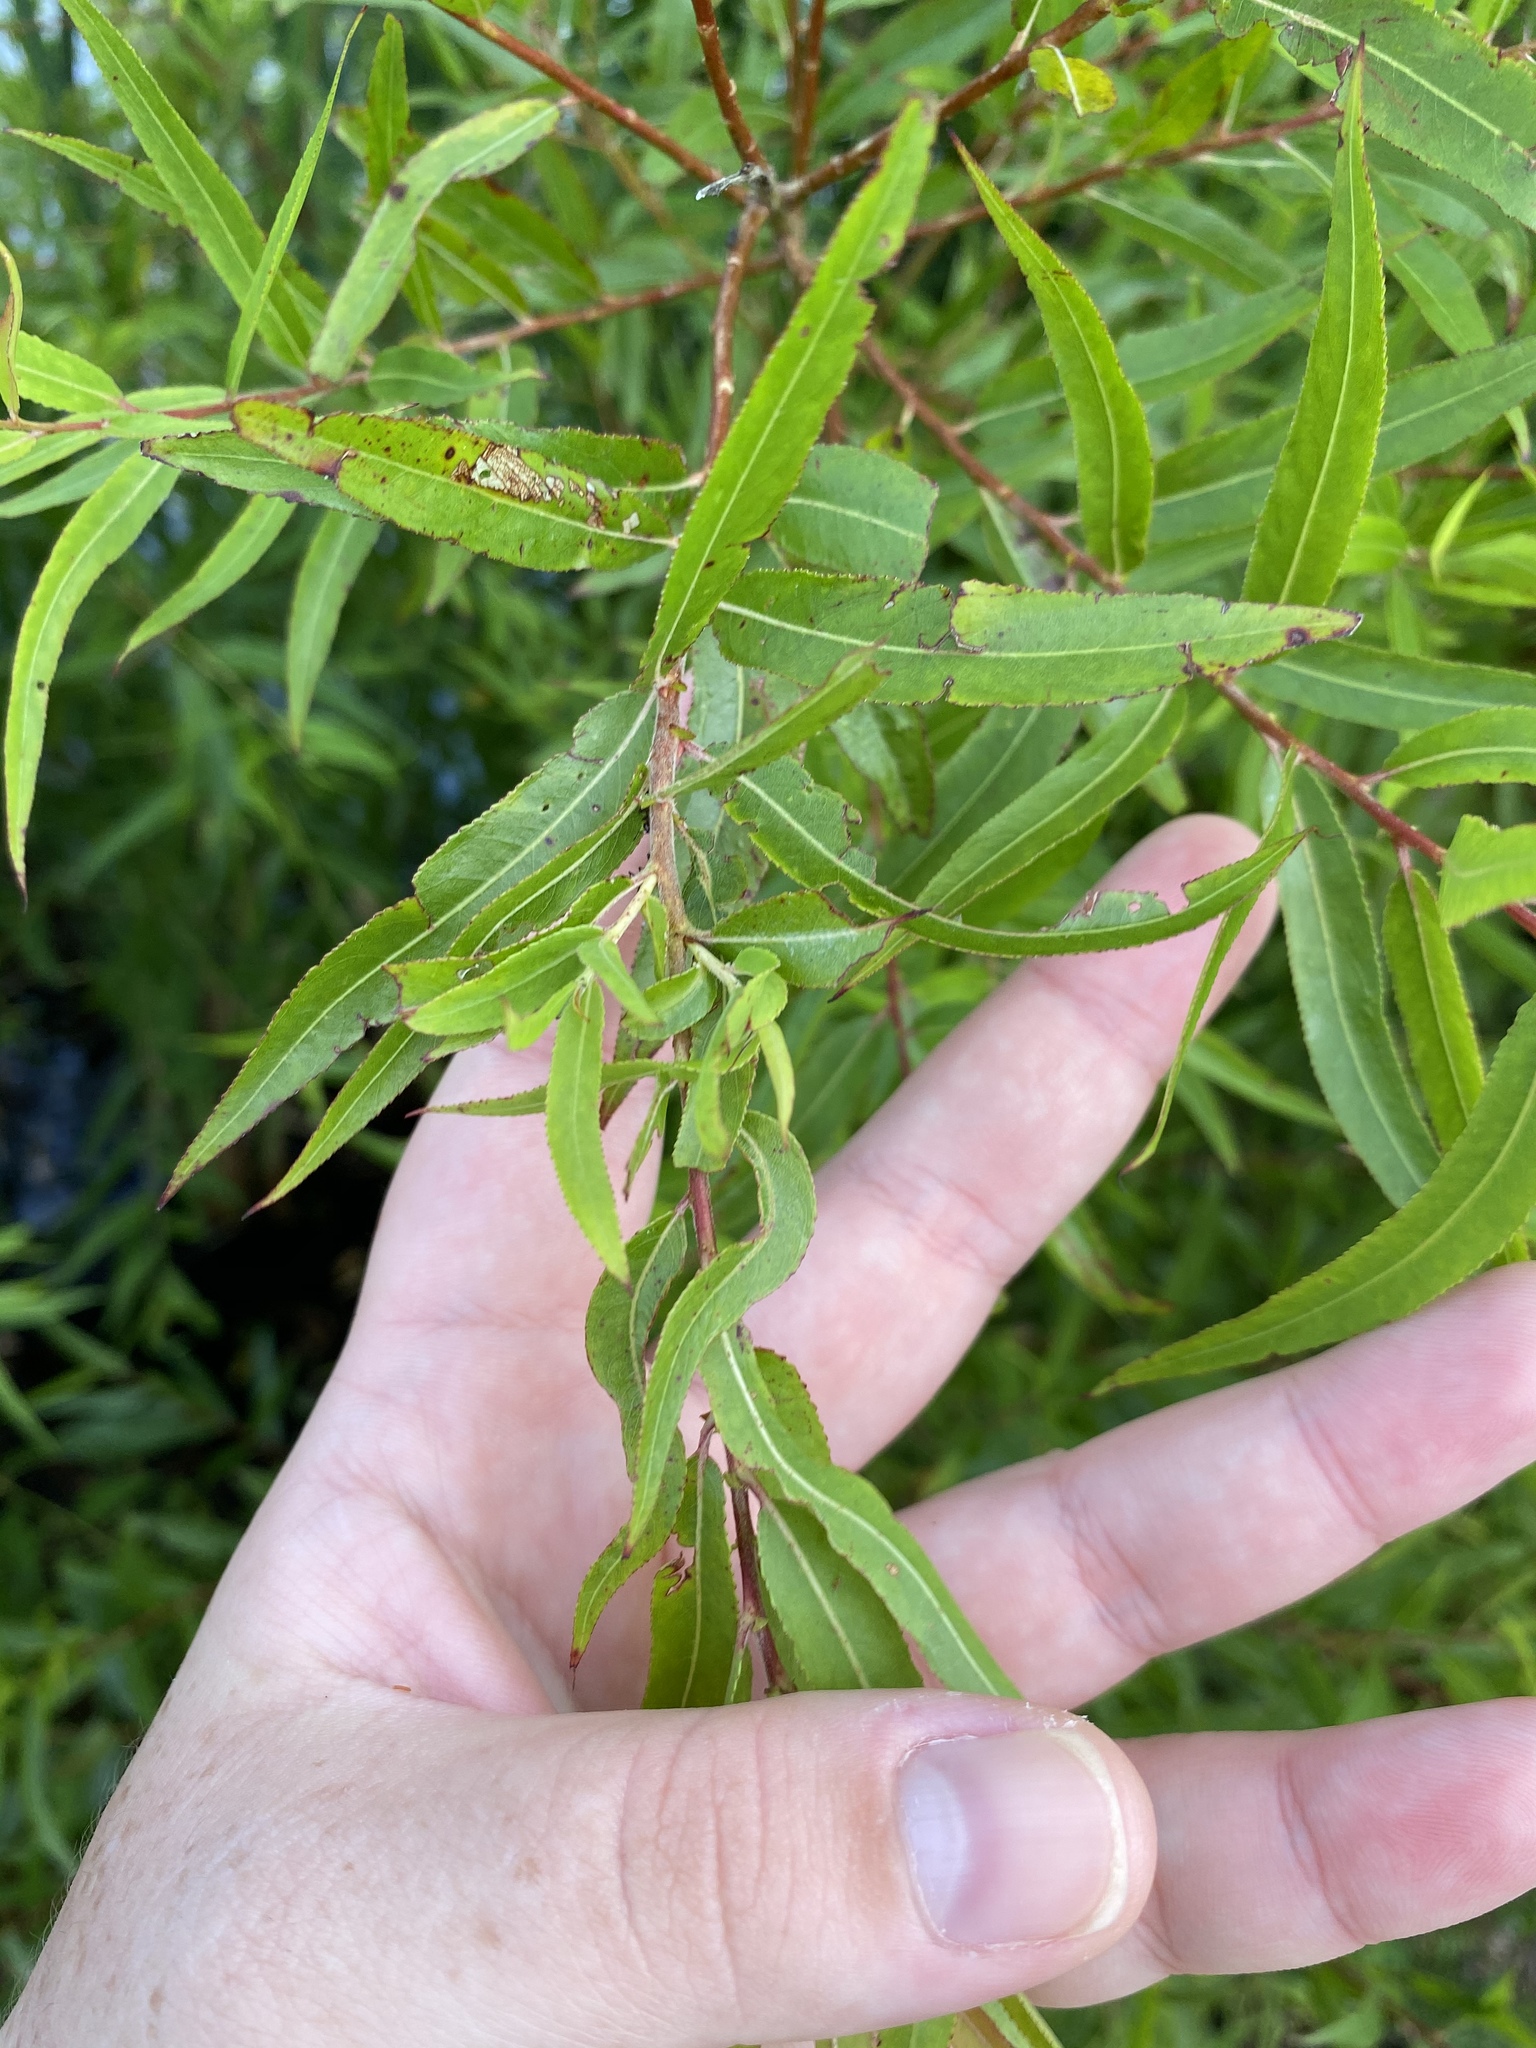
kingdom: Plantae
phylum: Tracheophyta
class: Magnoliopsida
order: Malpighiales
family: Salicaceae
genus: Salix
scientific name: Salix nigra
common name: Black willow
